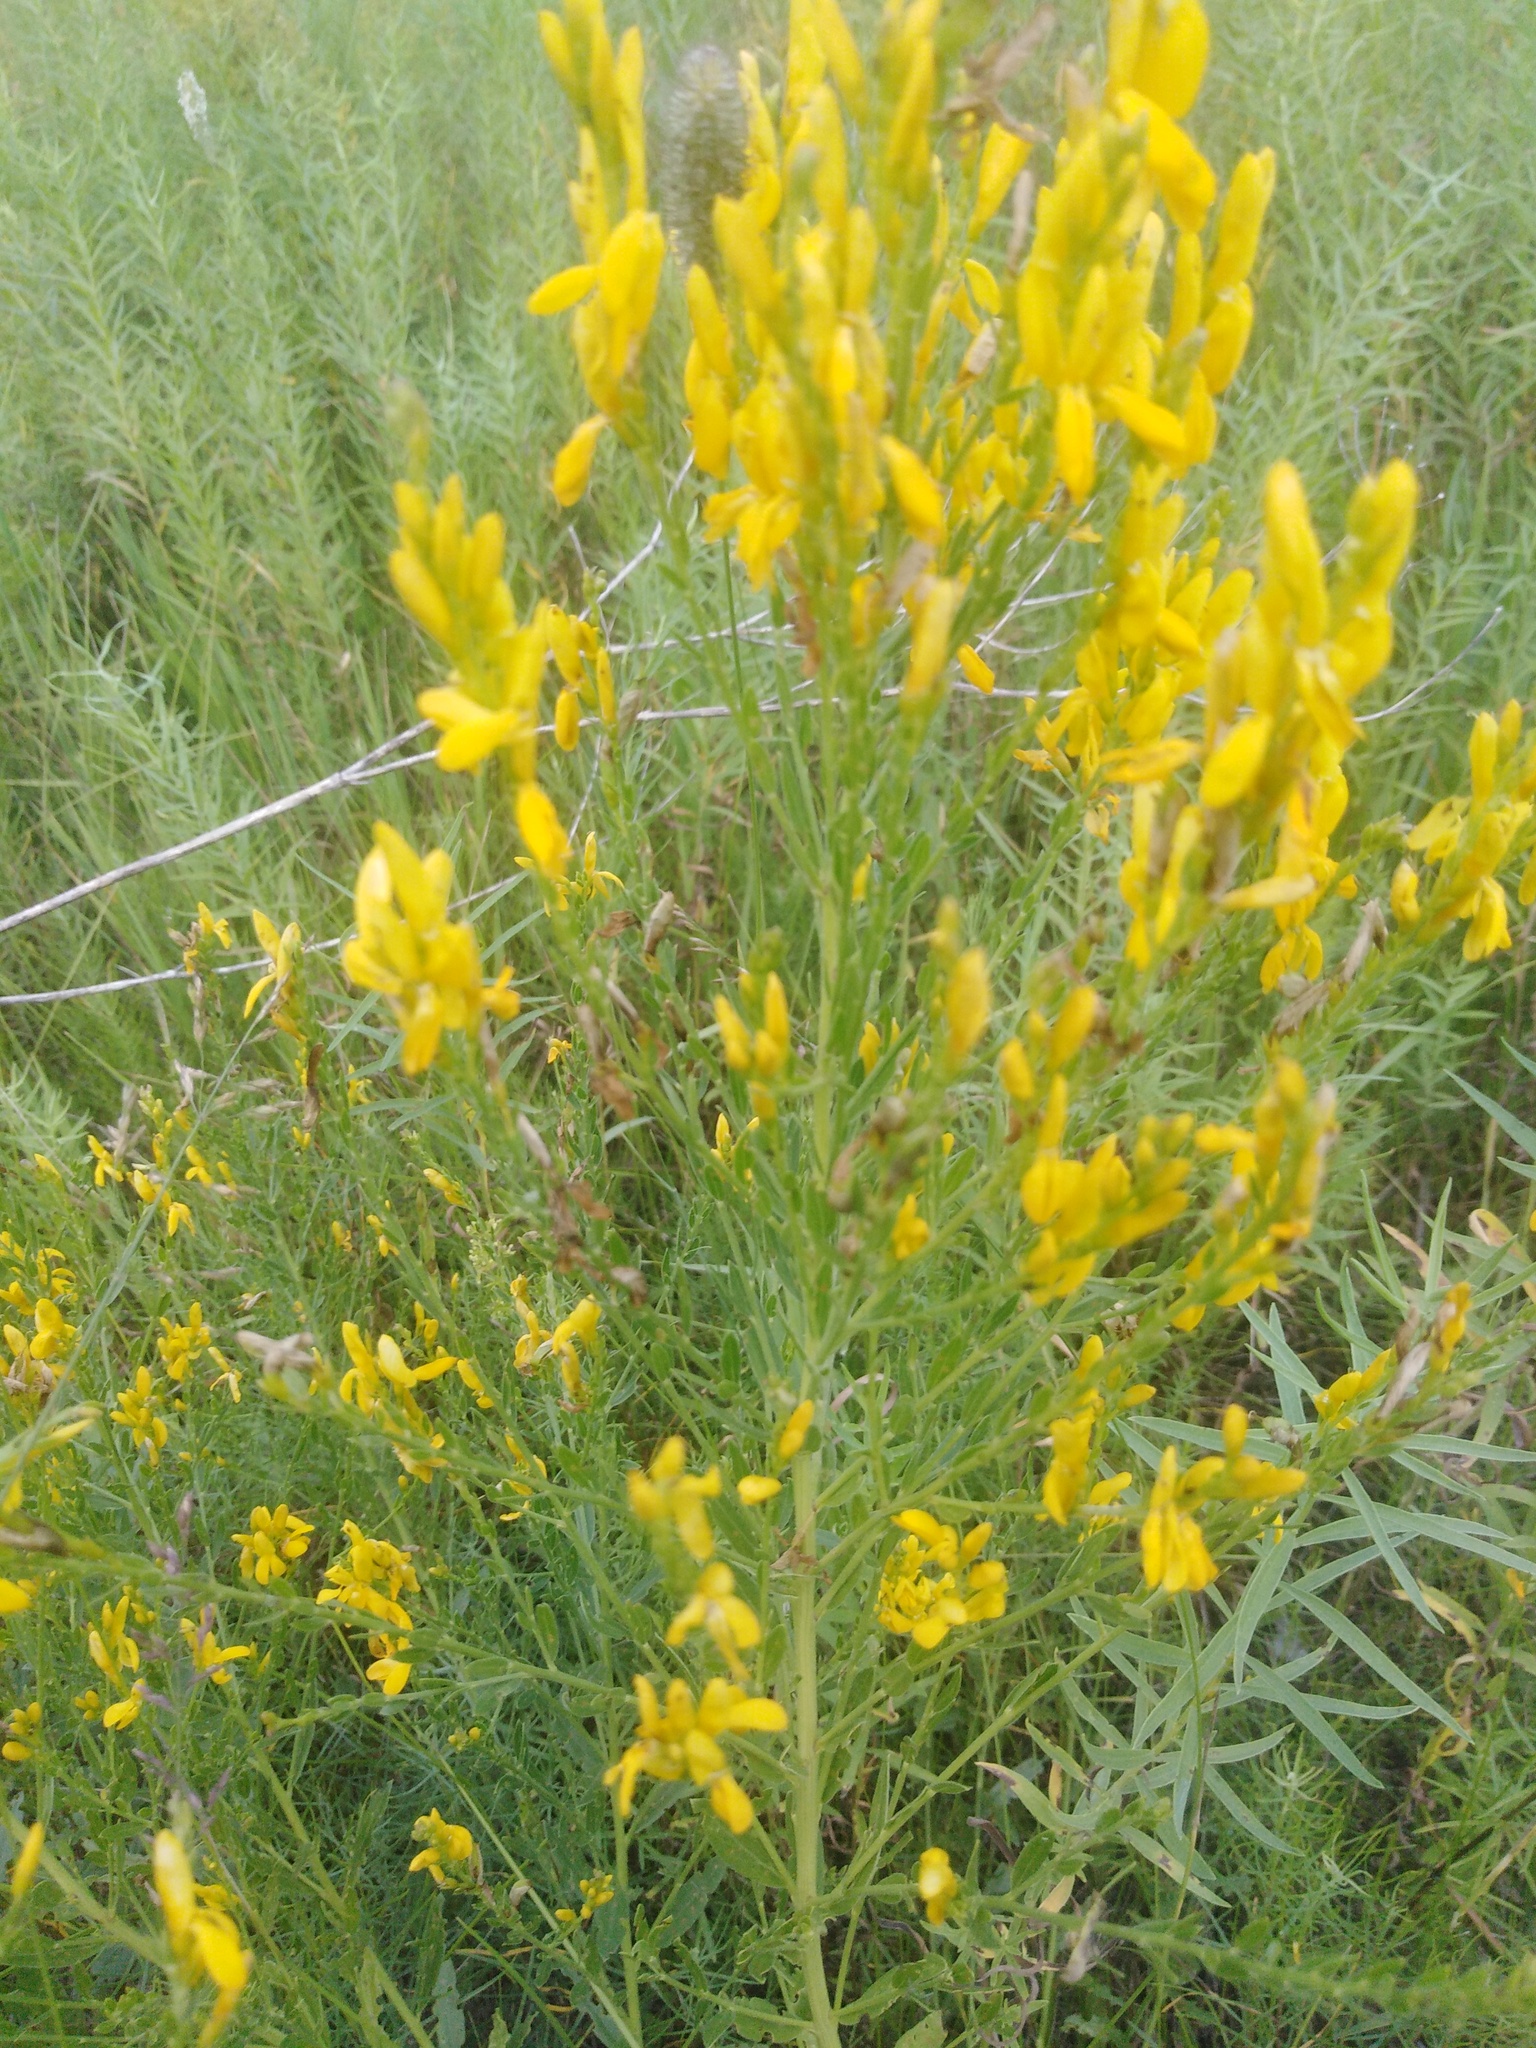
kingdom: Plantae
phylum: Tracheophyta
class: Magnoliopsida
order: Fabales
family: Fabaceae
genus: Genista
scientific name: Genista tinctoria
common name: Dyer's greenweed
